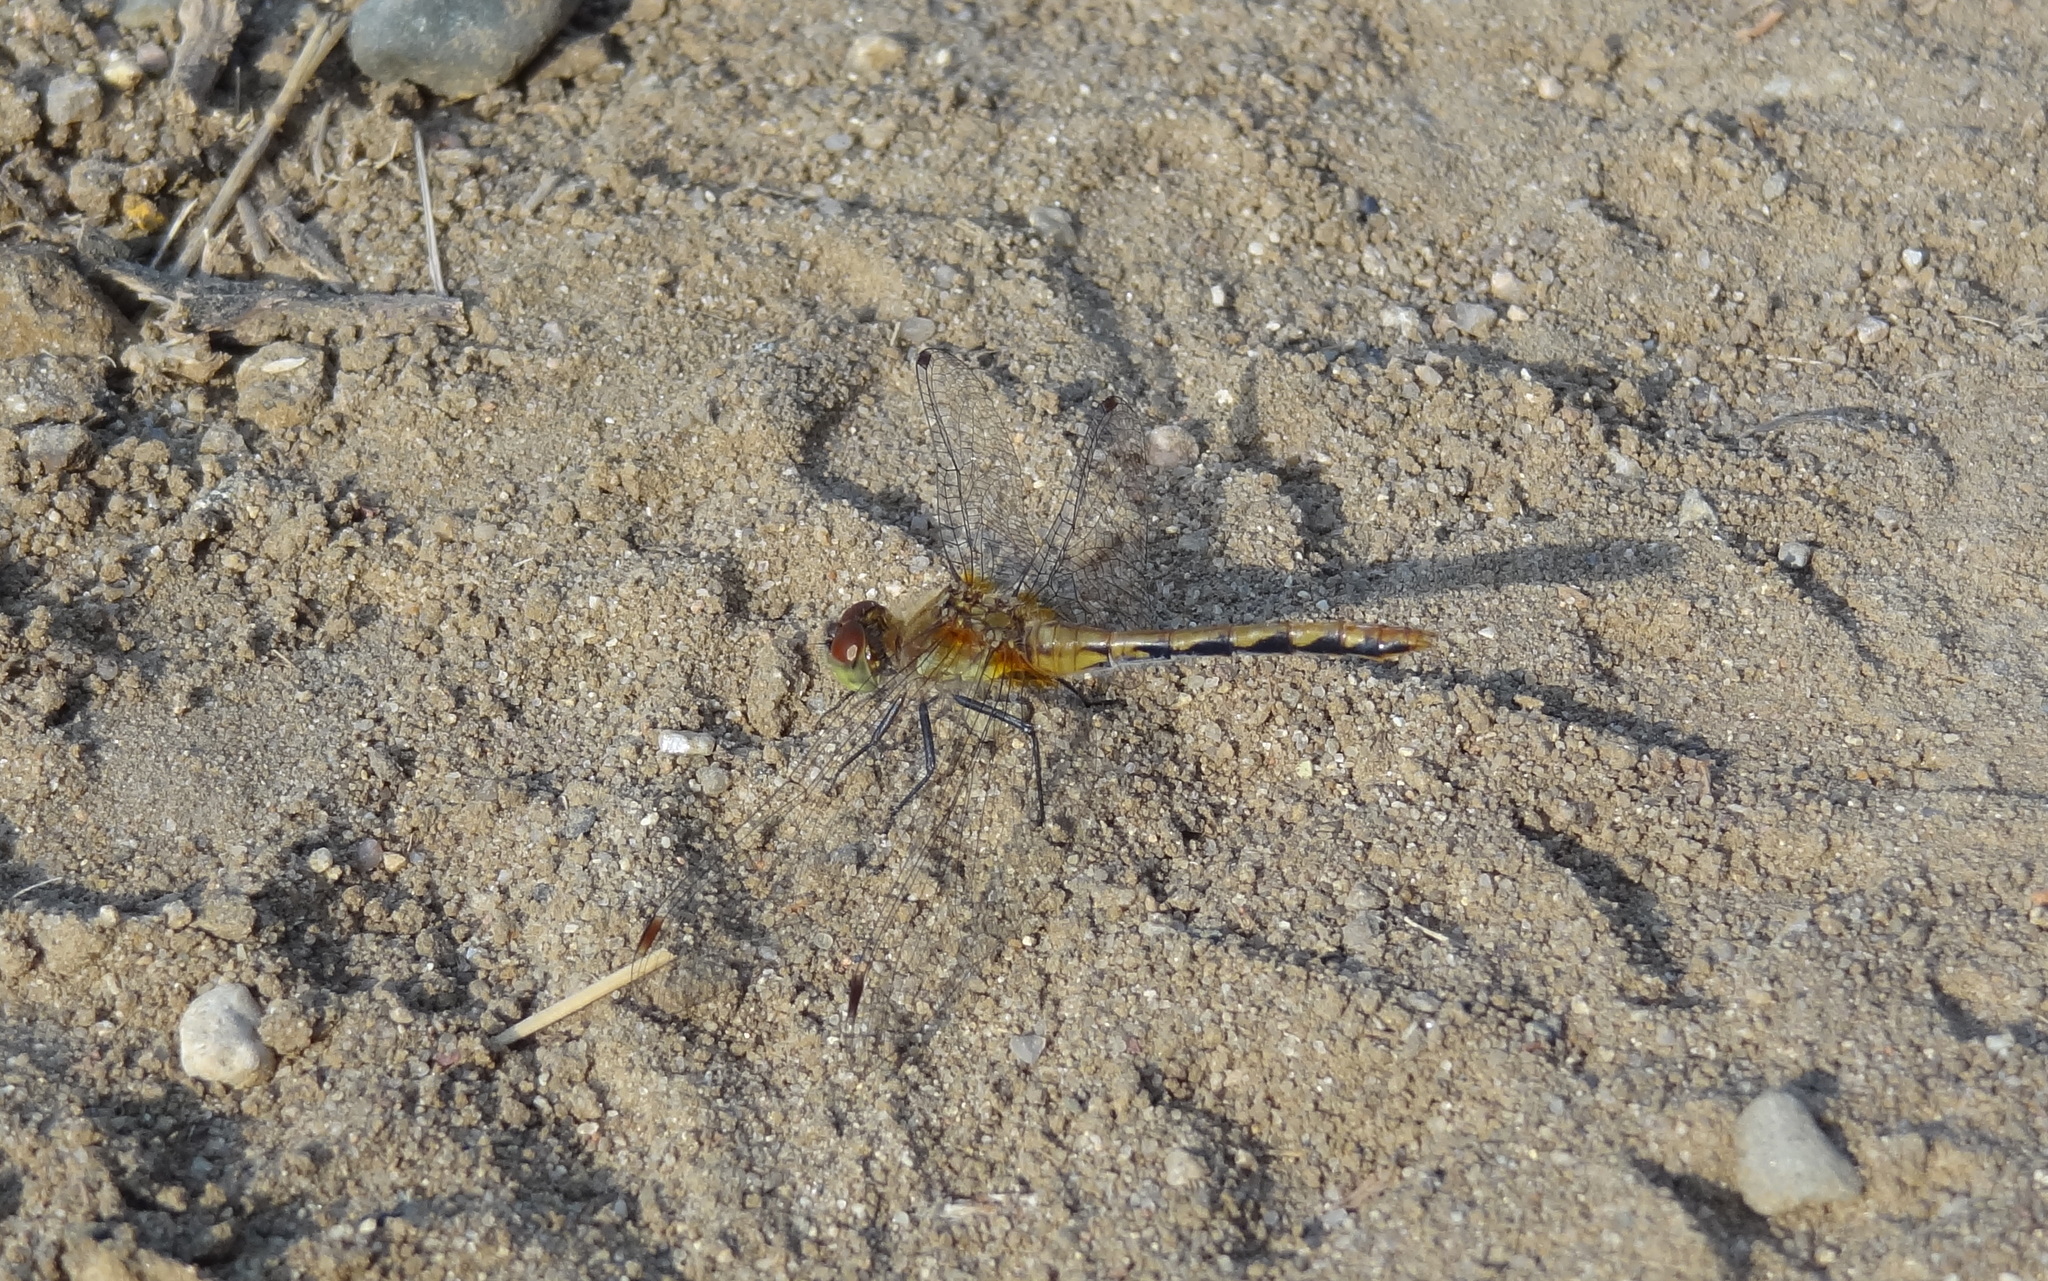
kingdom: Animalia
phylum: Arthropoda
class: Insecta
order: Odonata
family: Libellulidae
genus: Sympetrum
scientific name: Sympetrum obtrusum
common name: White-faced meadowhawk
